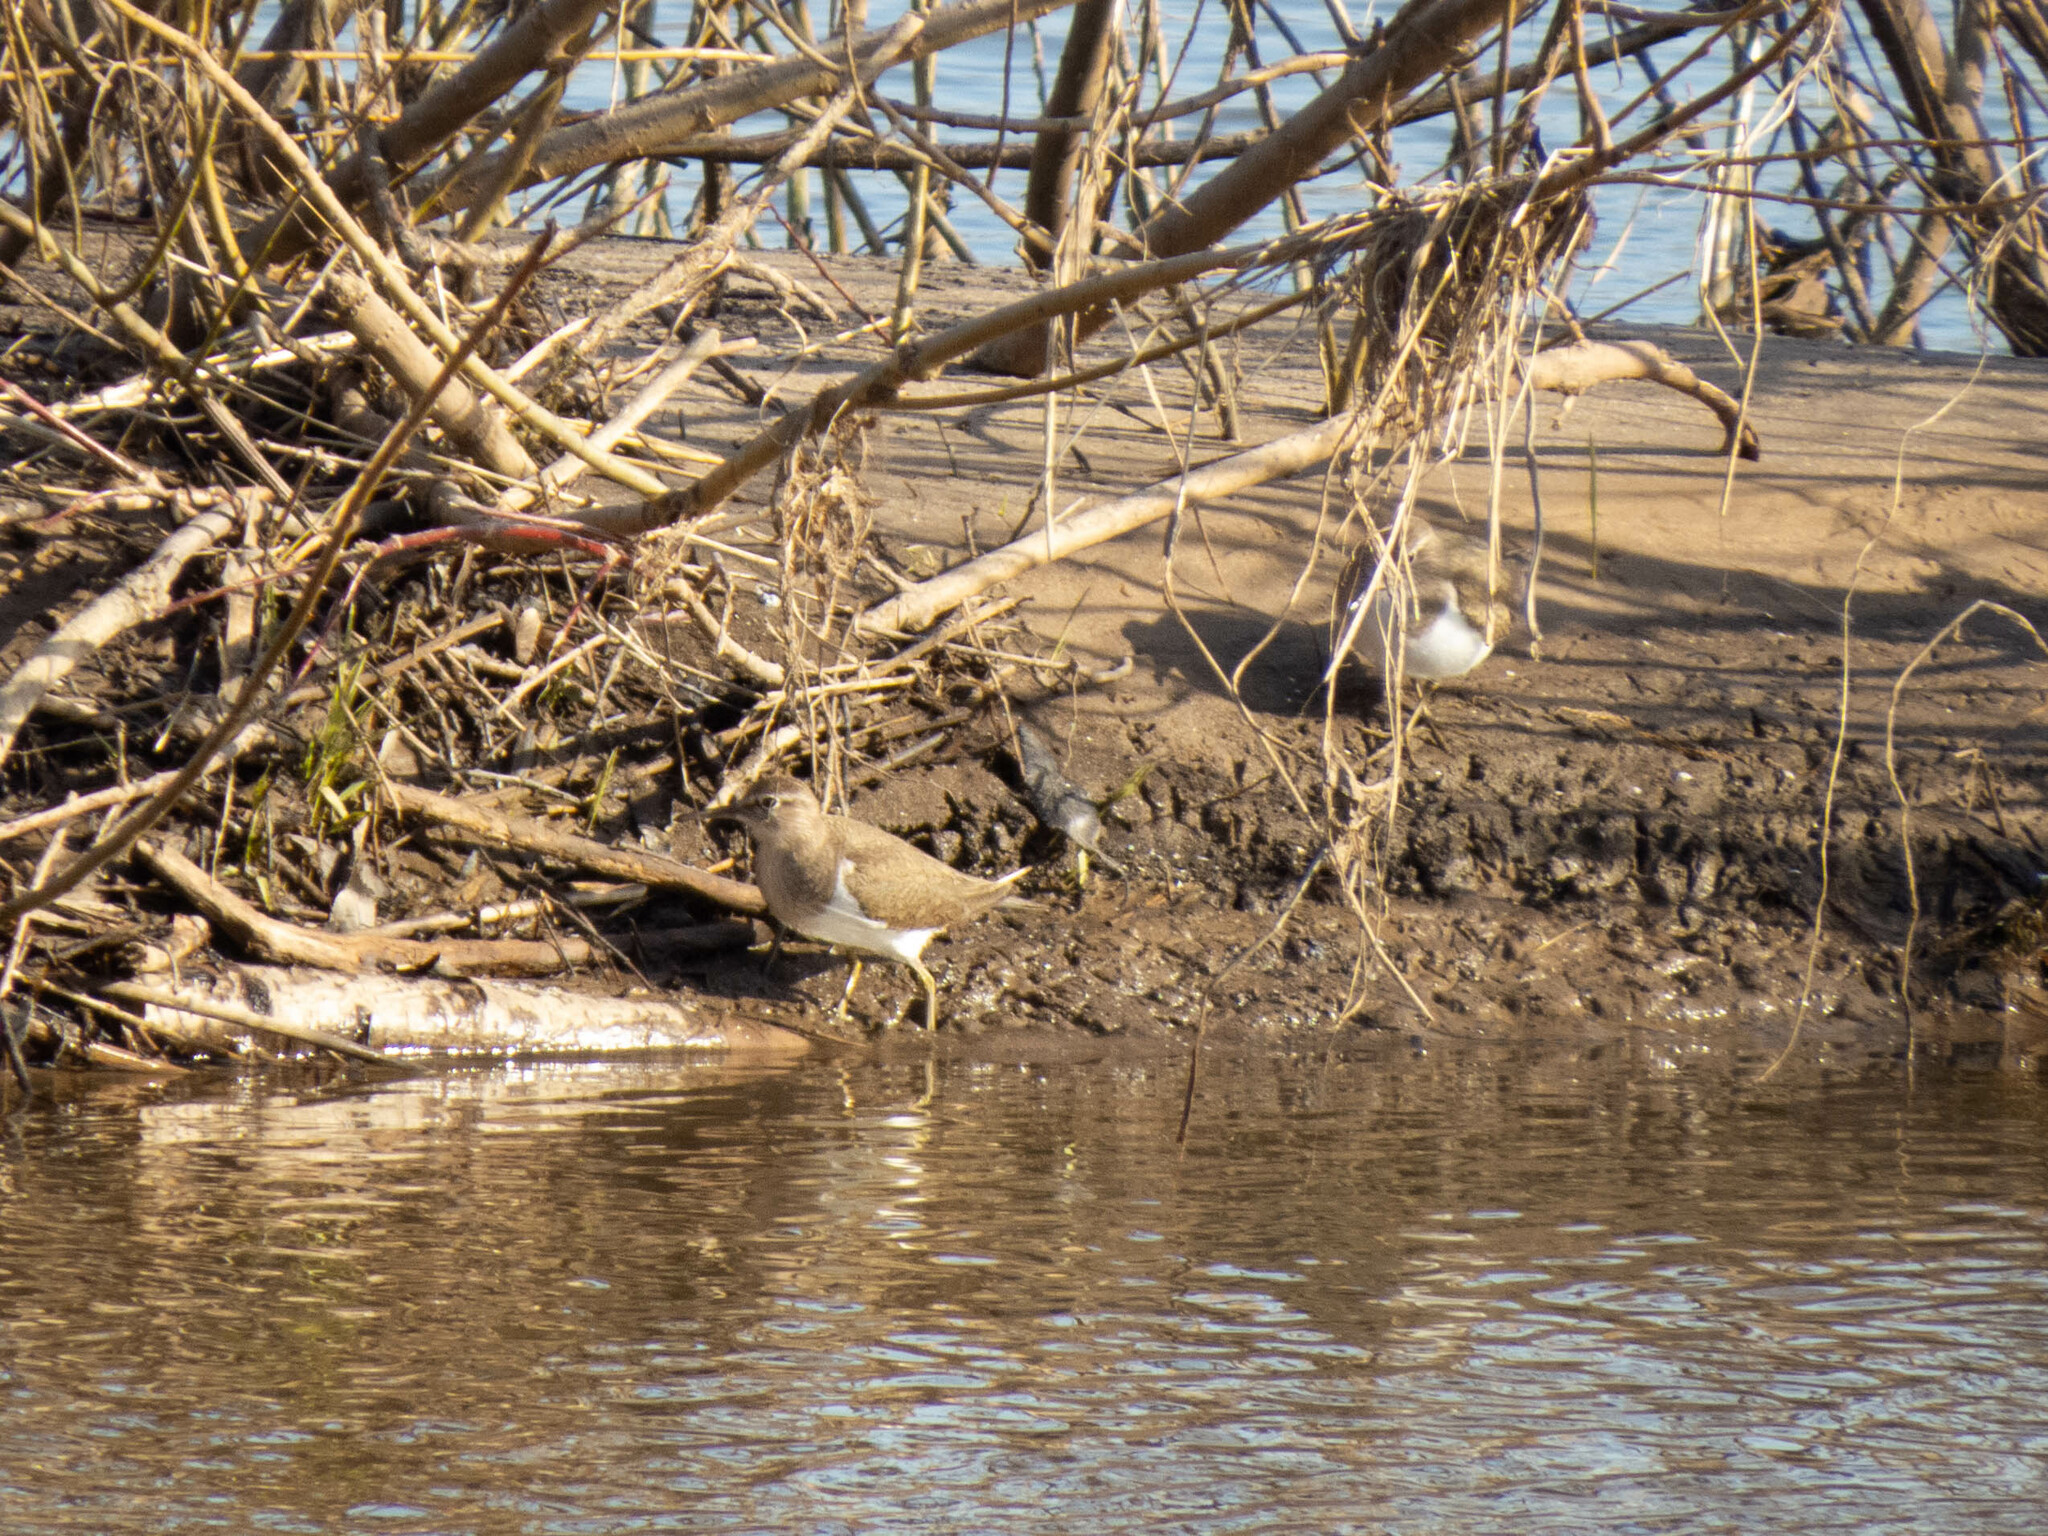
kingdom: Animalia
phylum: Chordata
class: Aves
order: Charadriiformes
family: Scolopacidae
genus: Actitis
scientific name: Actitis hypoleucos
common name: Common sandpiper
